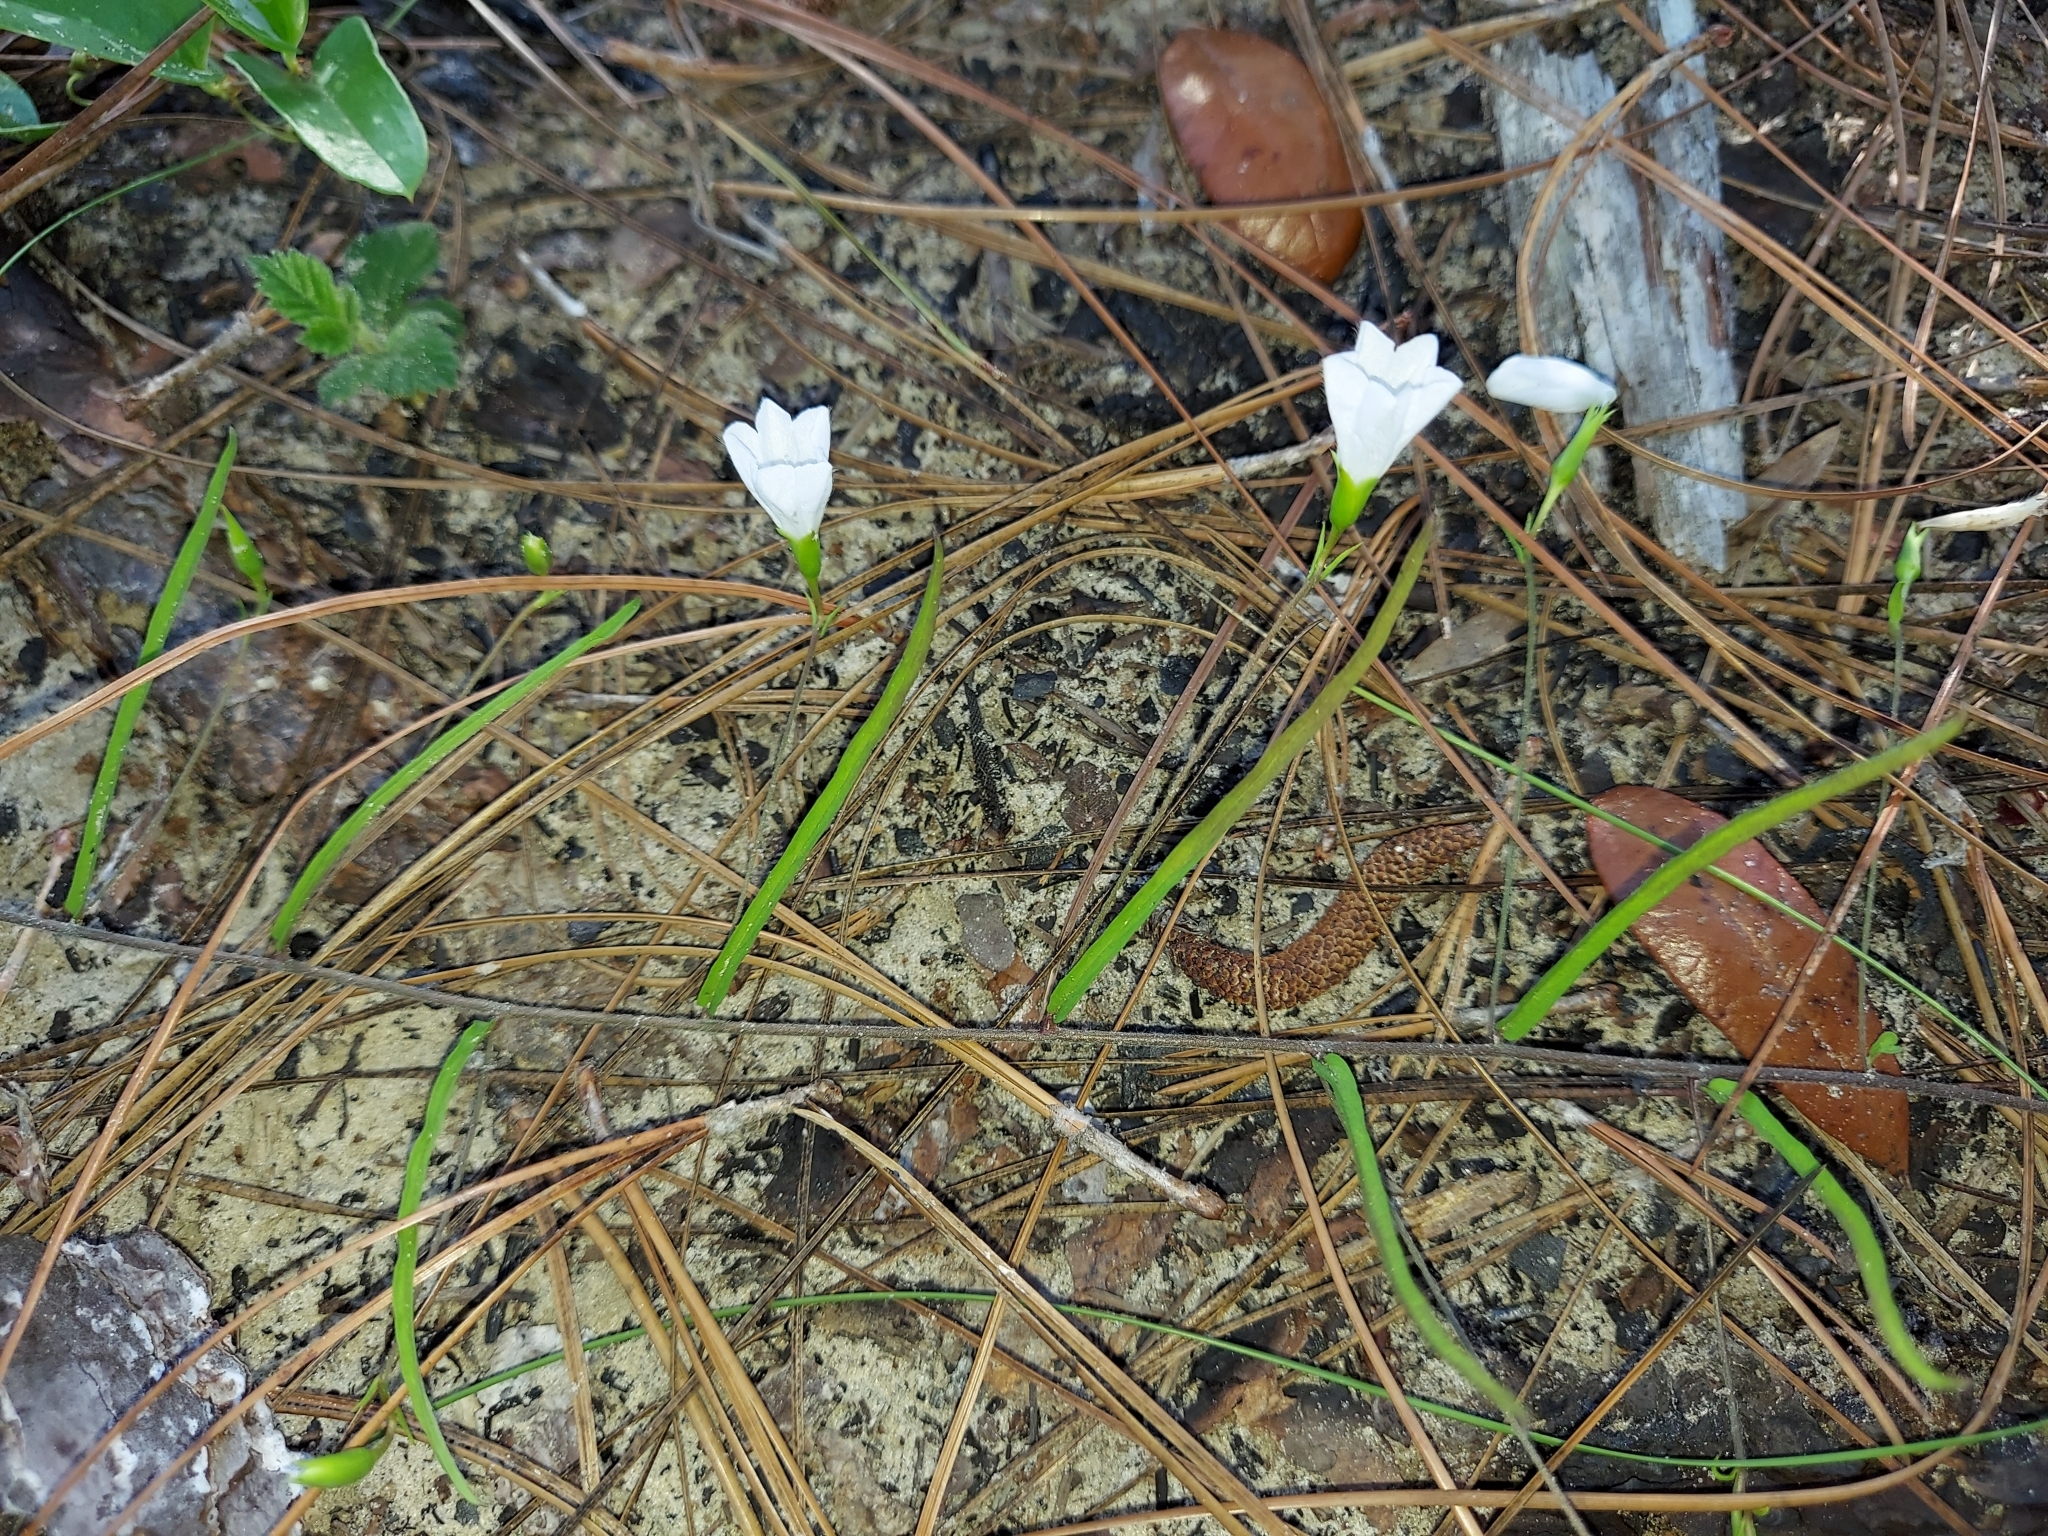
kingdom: Plantae
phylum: Tracheophyta
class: Magnoliopsida
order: Solanales
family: Convolvulaceae
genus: Stylisma
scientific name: Stylisma patens
